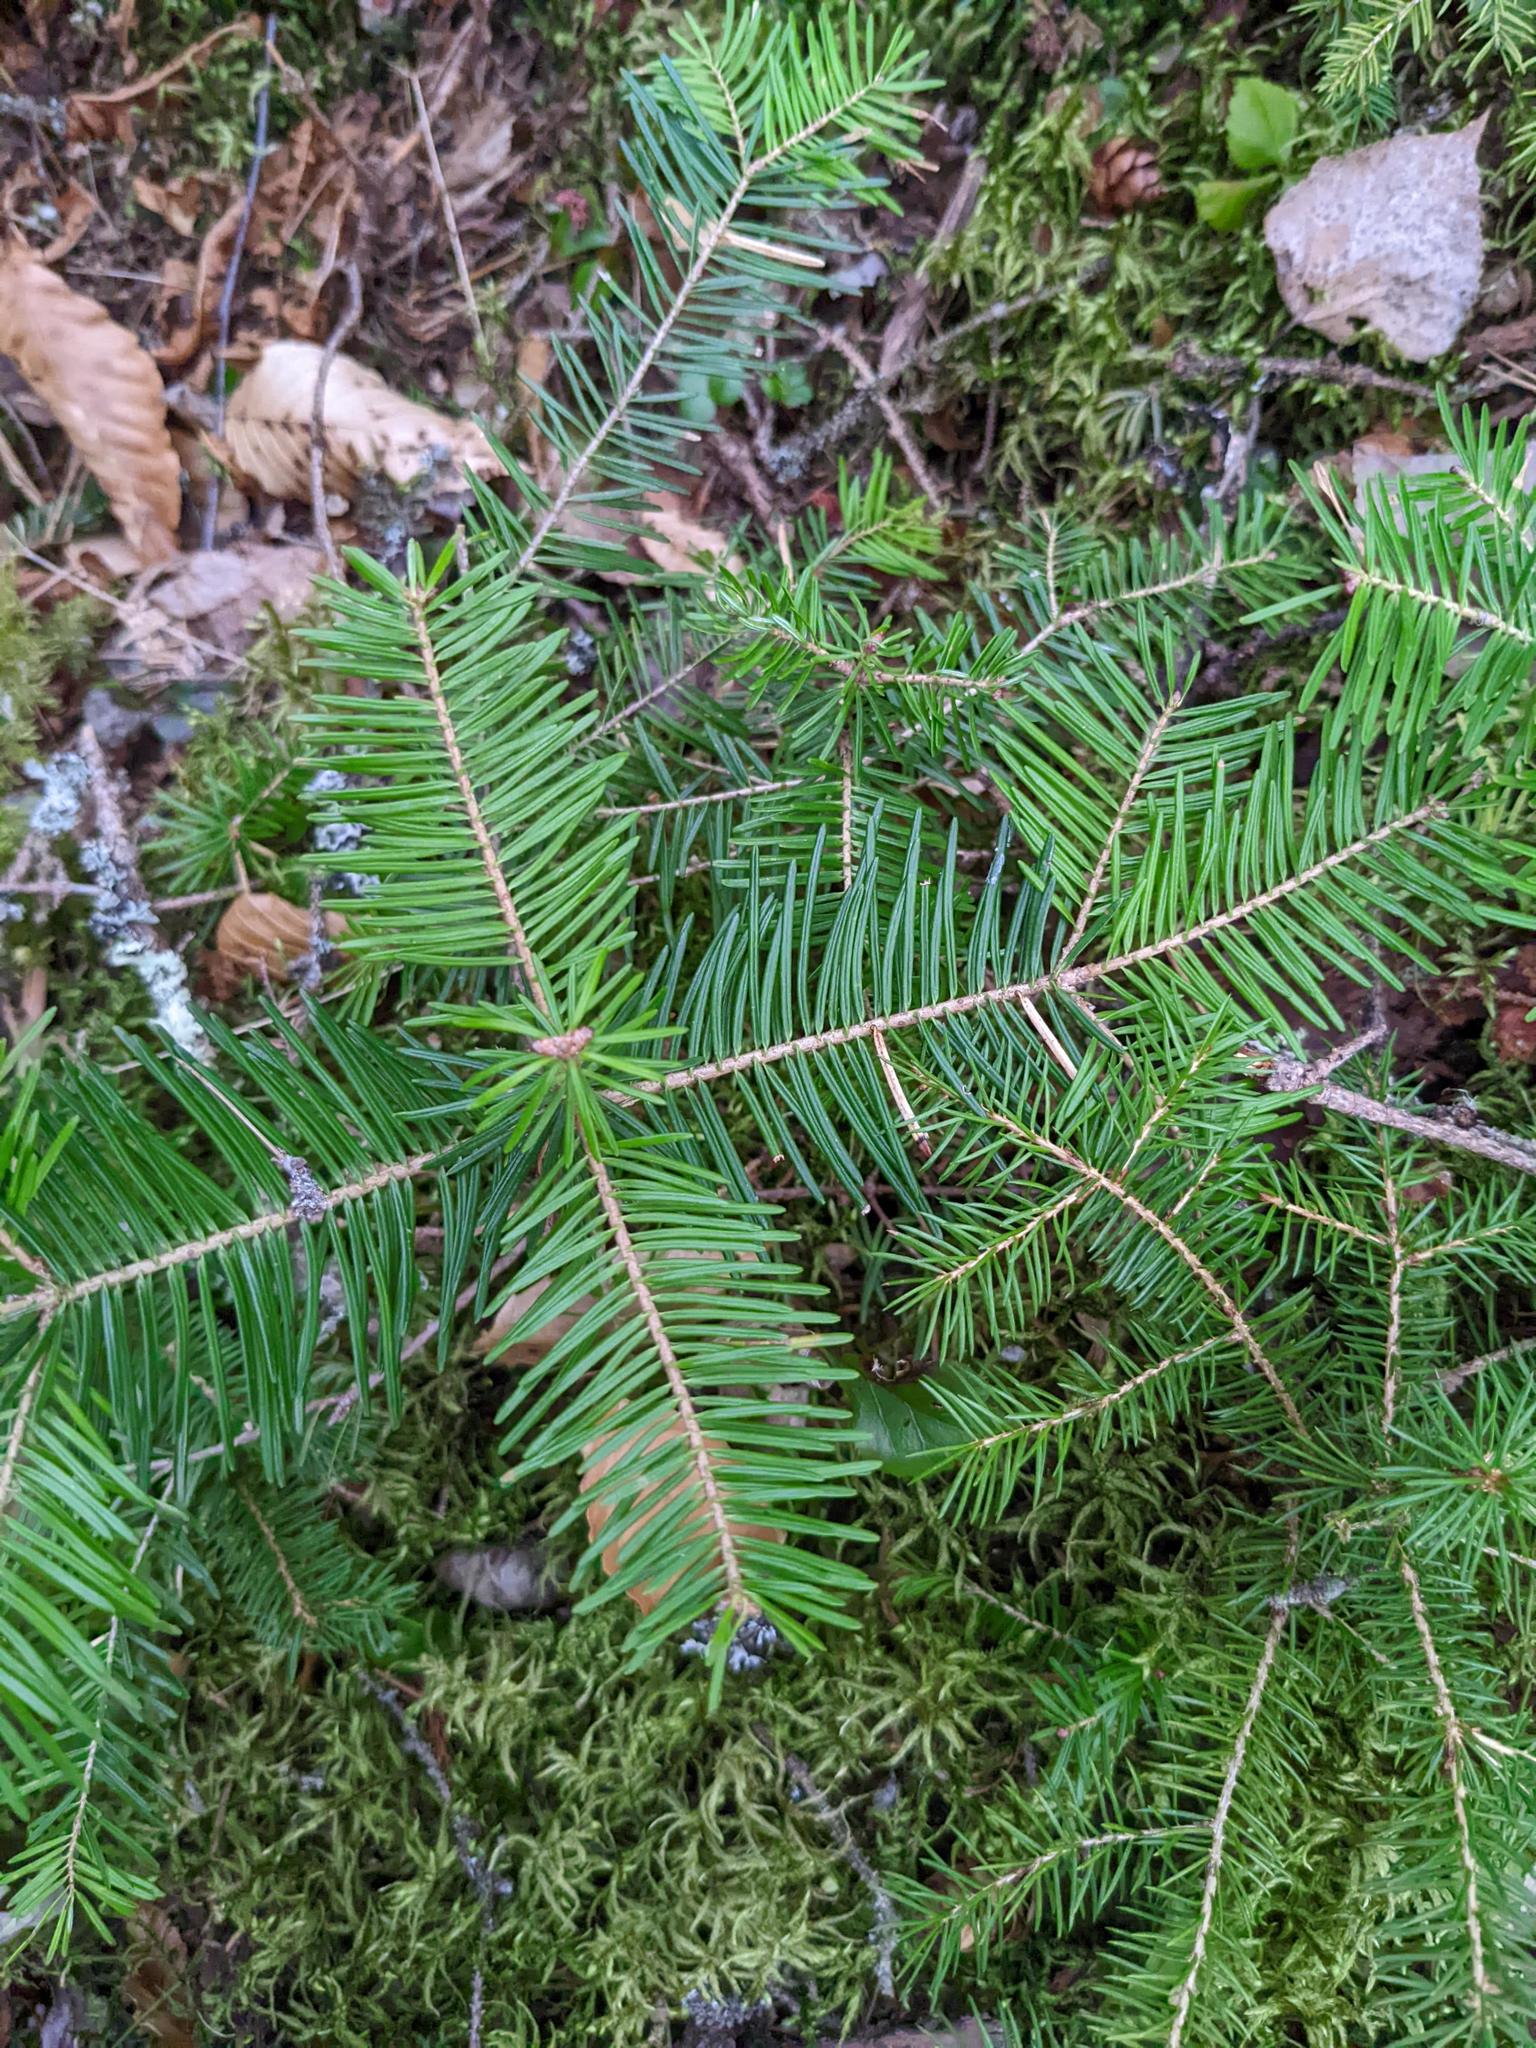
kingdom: Plantae
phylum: Tracheophyta
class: Pinopsida
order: Pinales
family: Pinaceae
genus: Abies
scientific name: Abies balsamea
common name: Balsam fir
